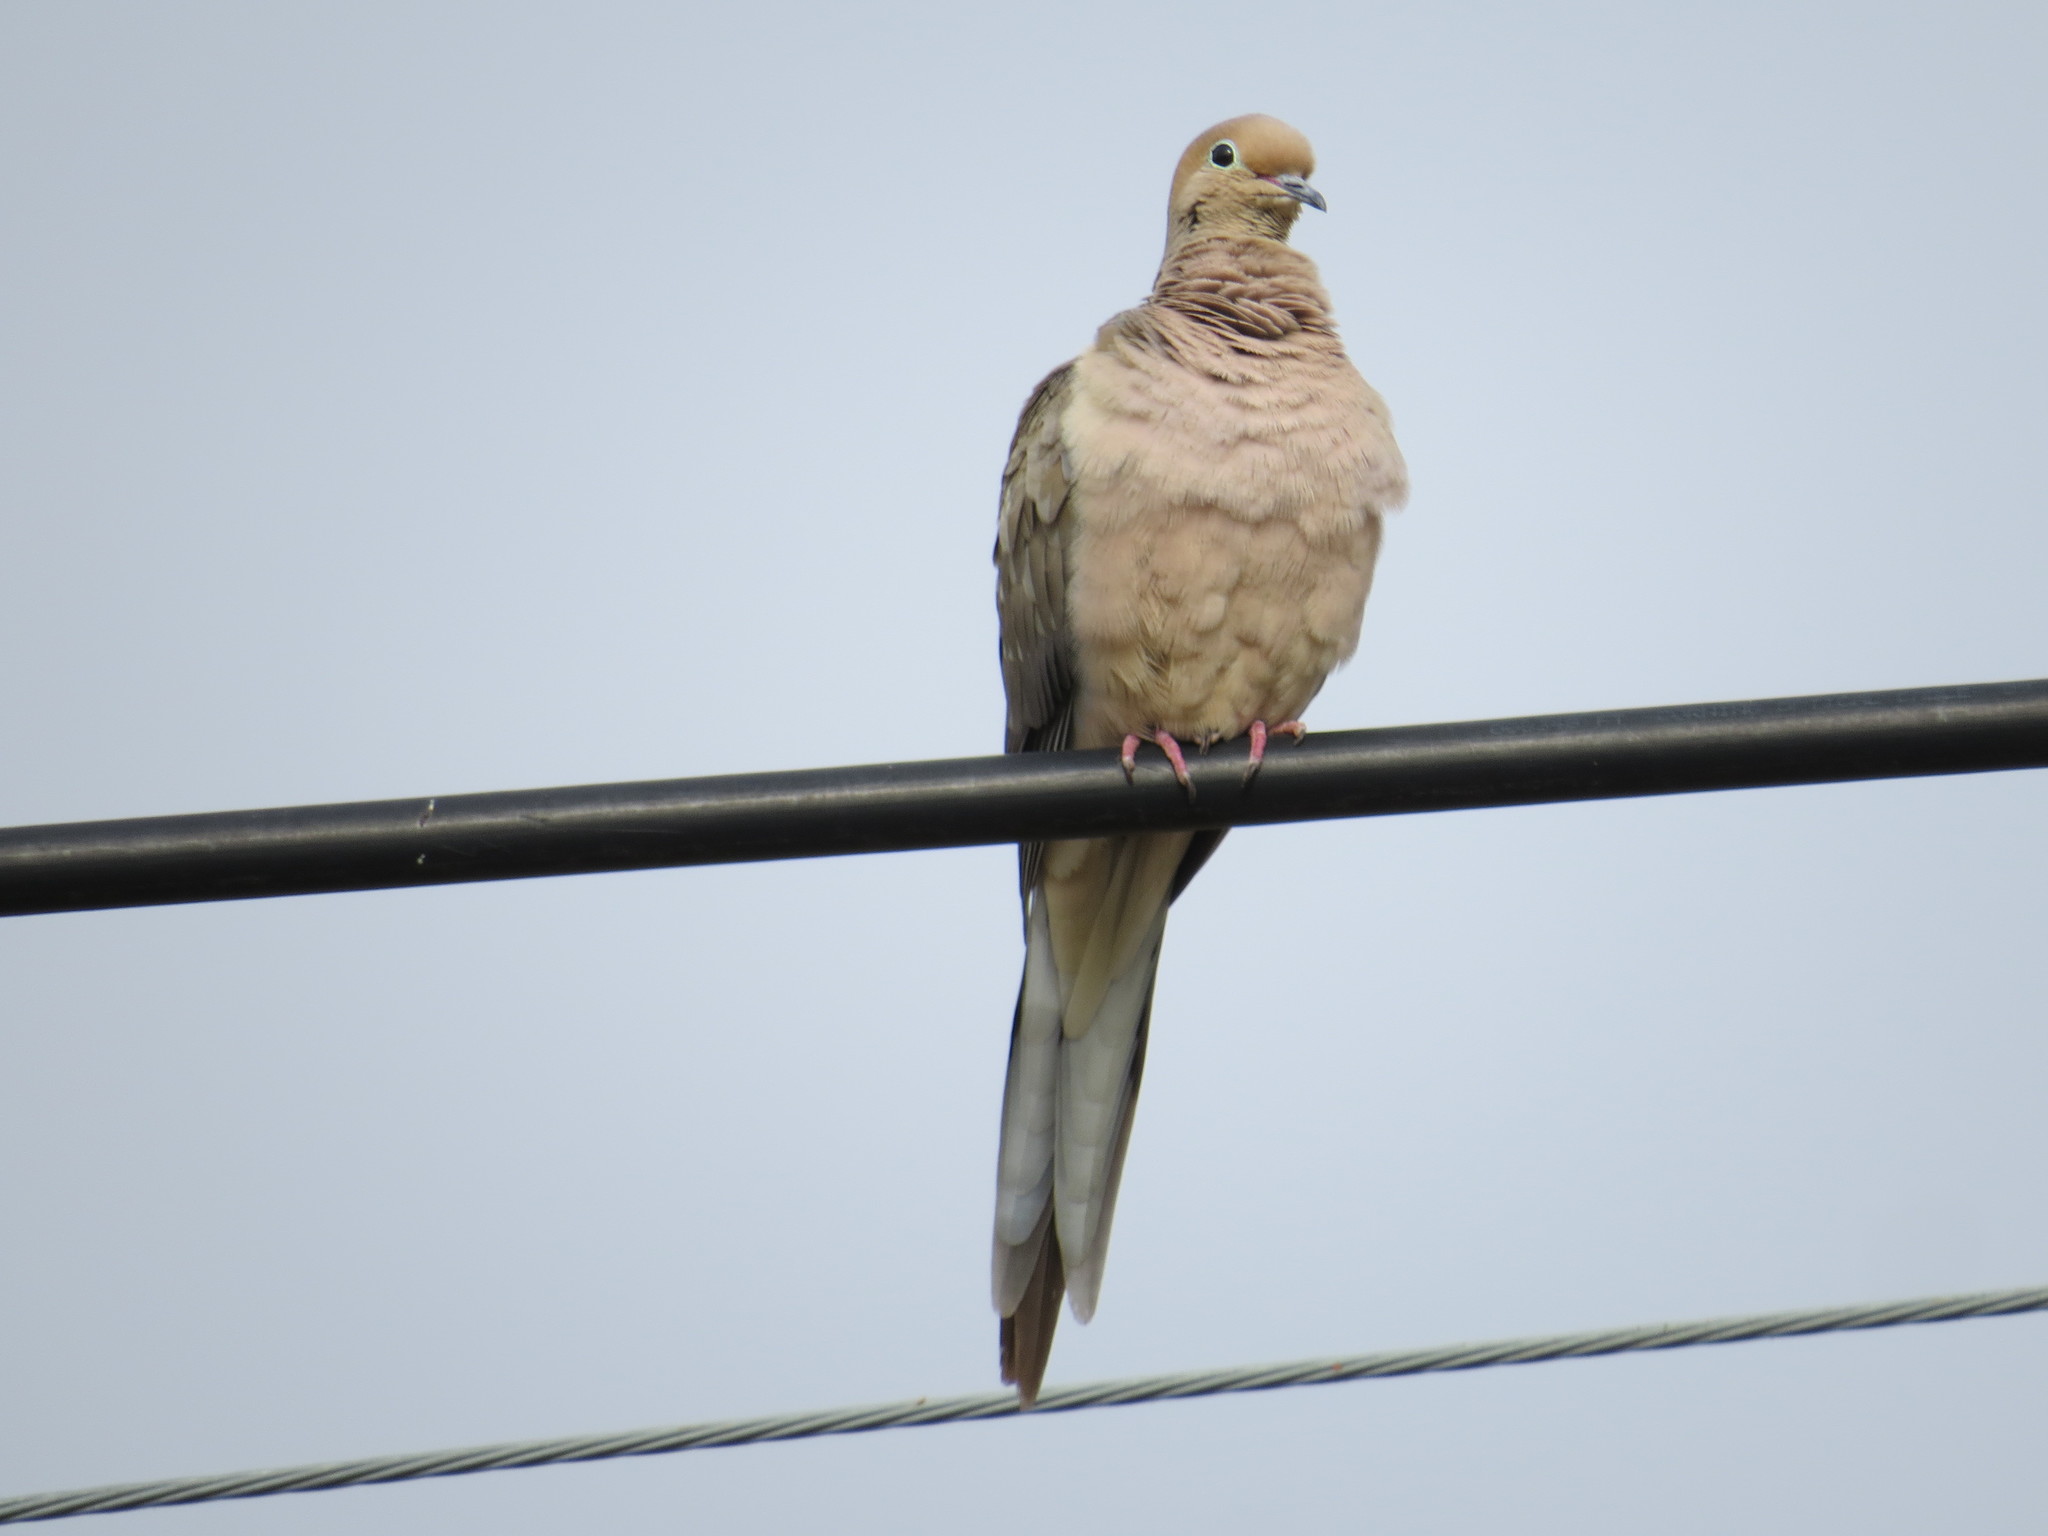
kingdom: Animalia
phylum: Chordata
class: Aves
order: Columbiformes
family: Columbidae
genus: Zenaida
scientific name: Zenaida macroura
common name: Mourning dove
